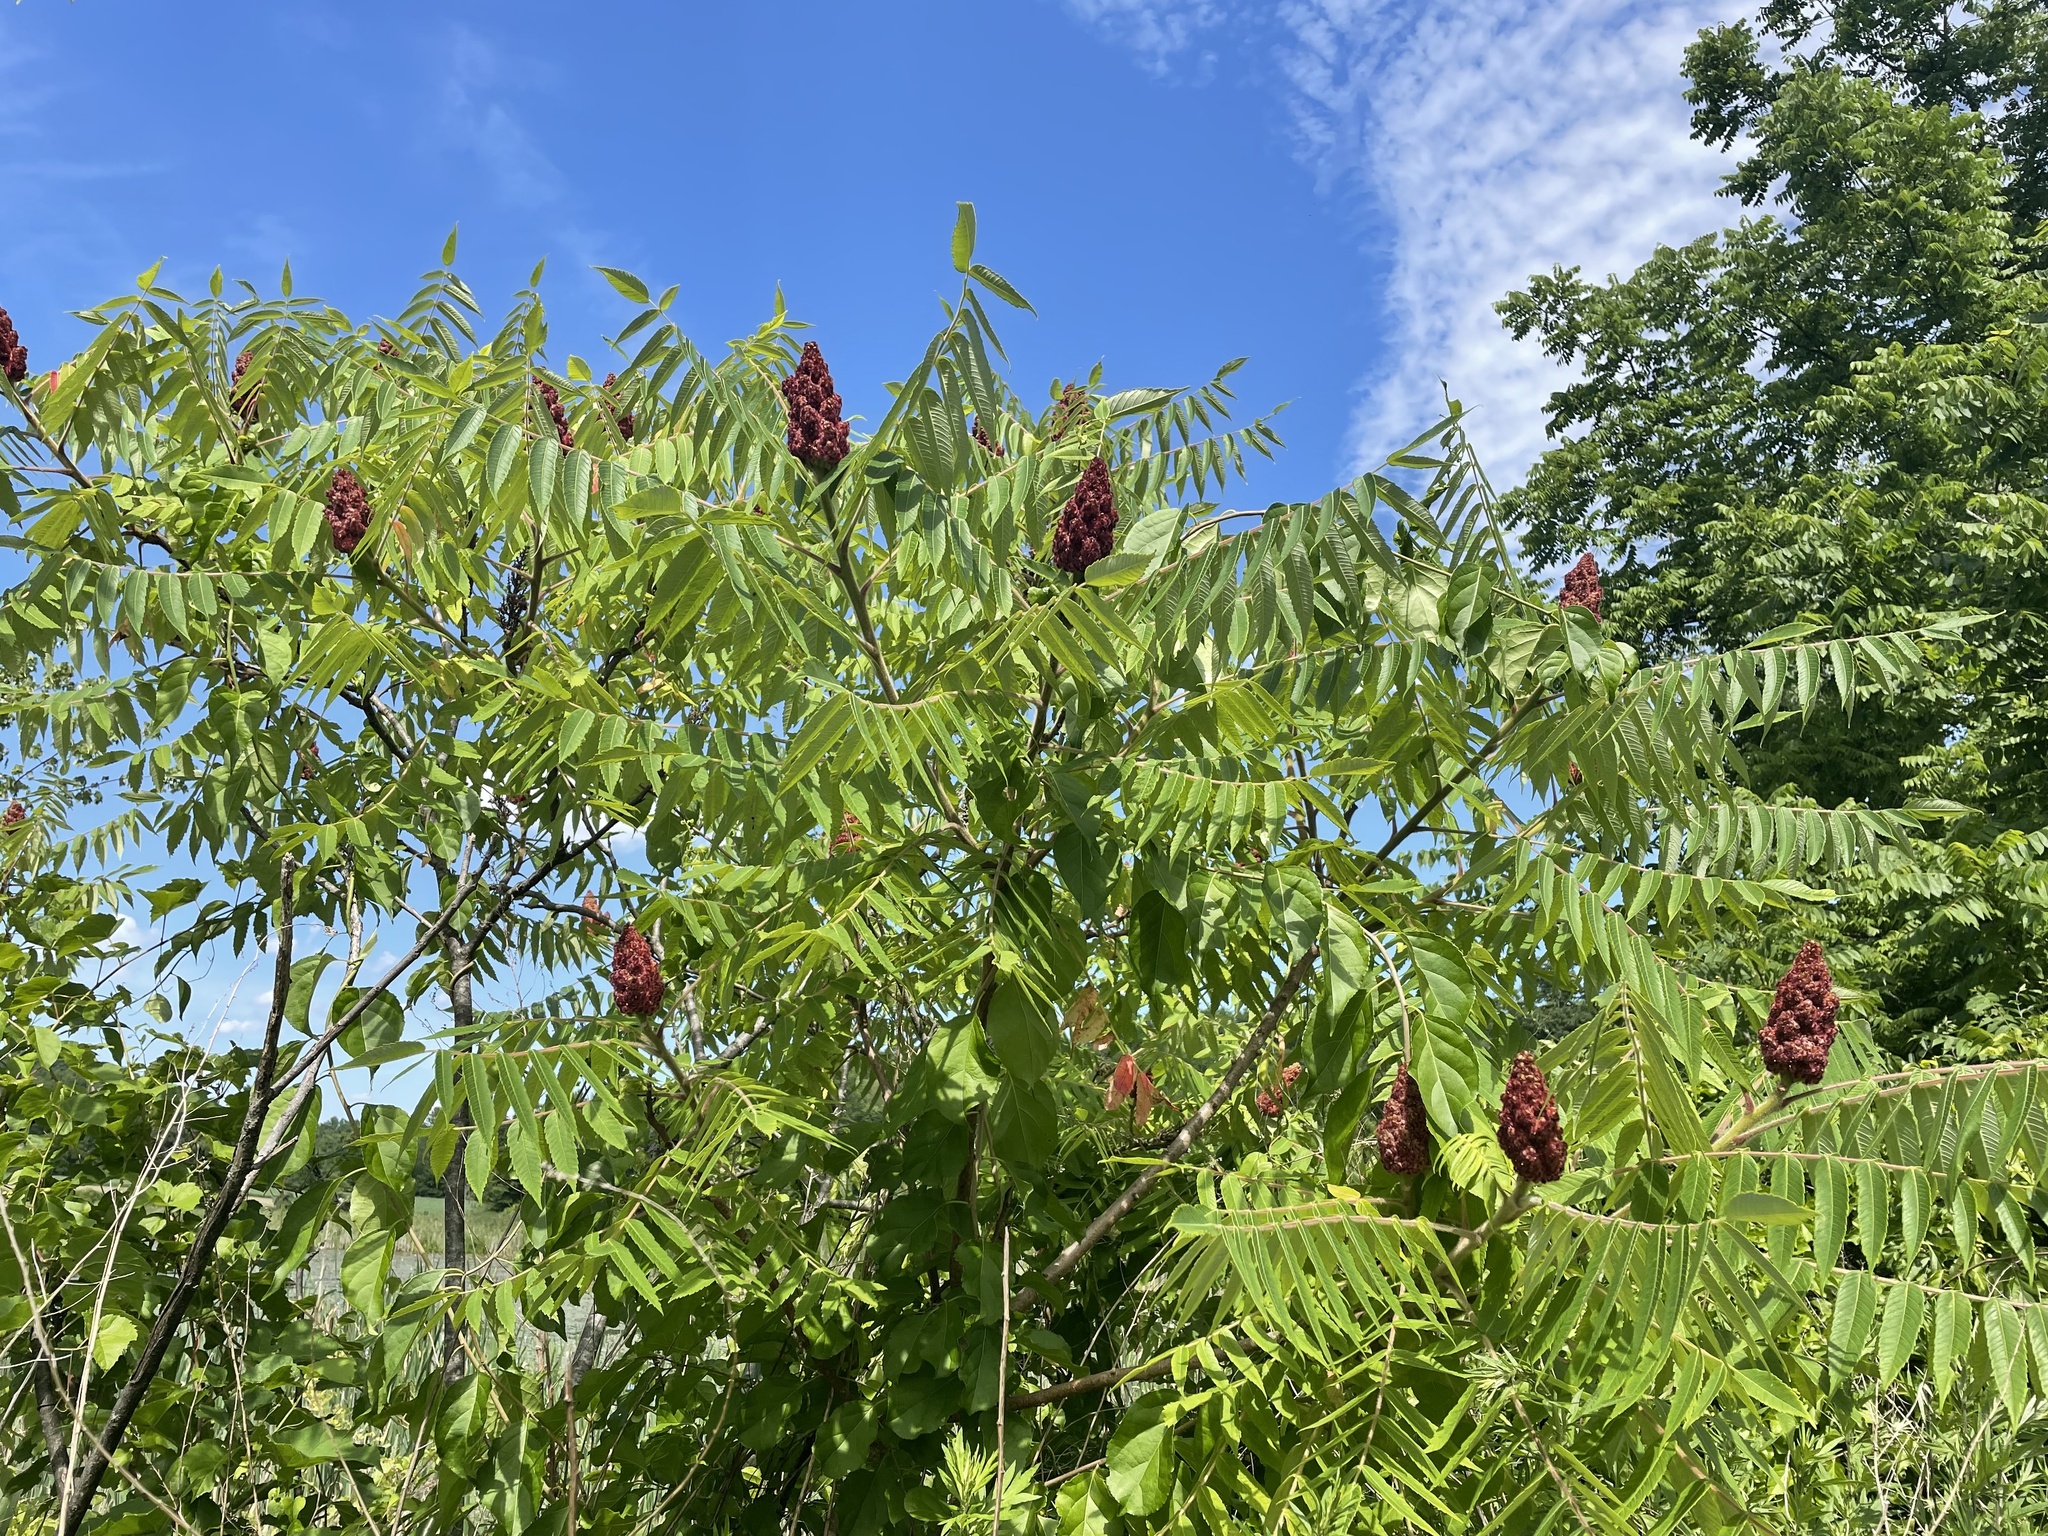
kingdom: Plantae
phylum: Tracheophyta
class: Magnoliopsida
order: Sapindales
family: Anacardiaceae
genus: Rhus
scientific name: Rhus typhina
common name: Staghorn sumac
